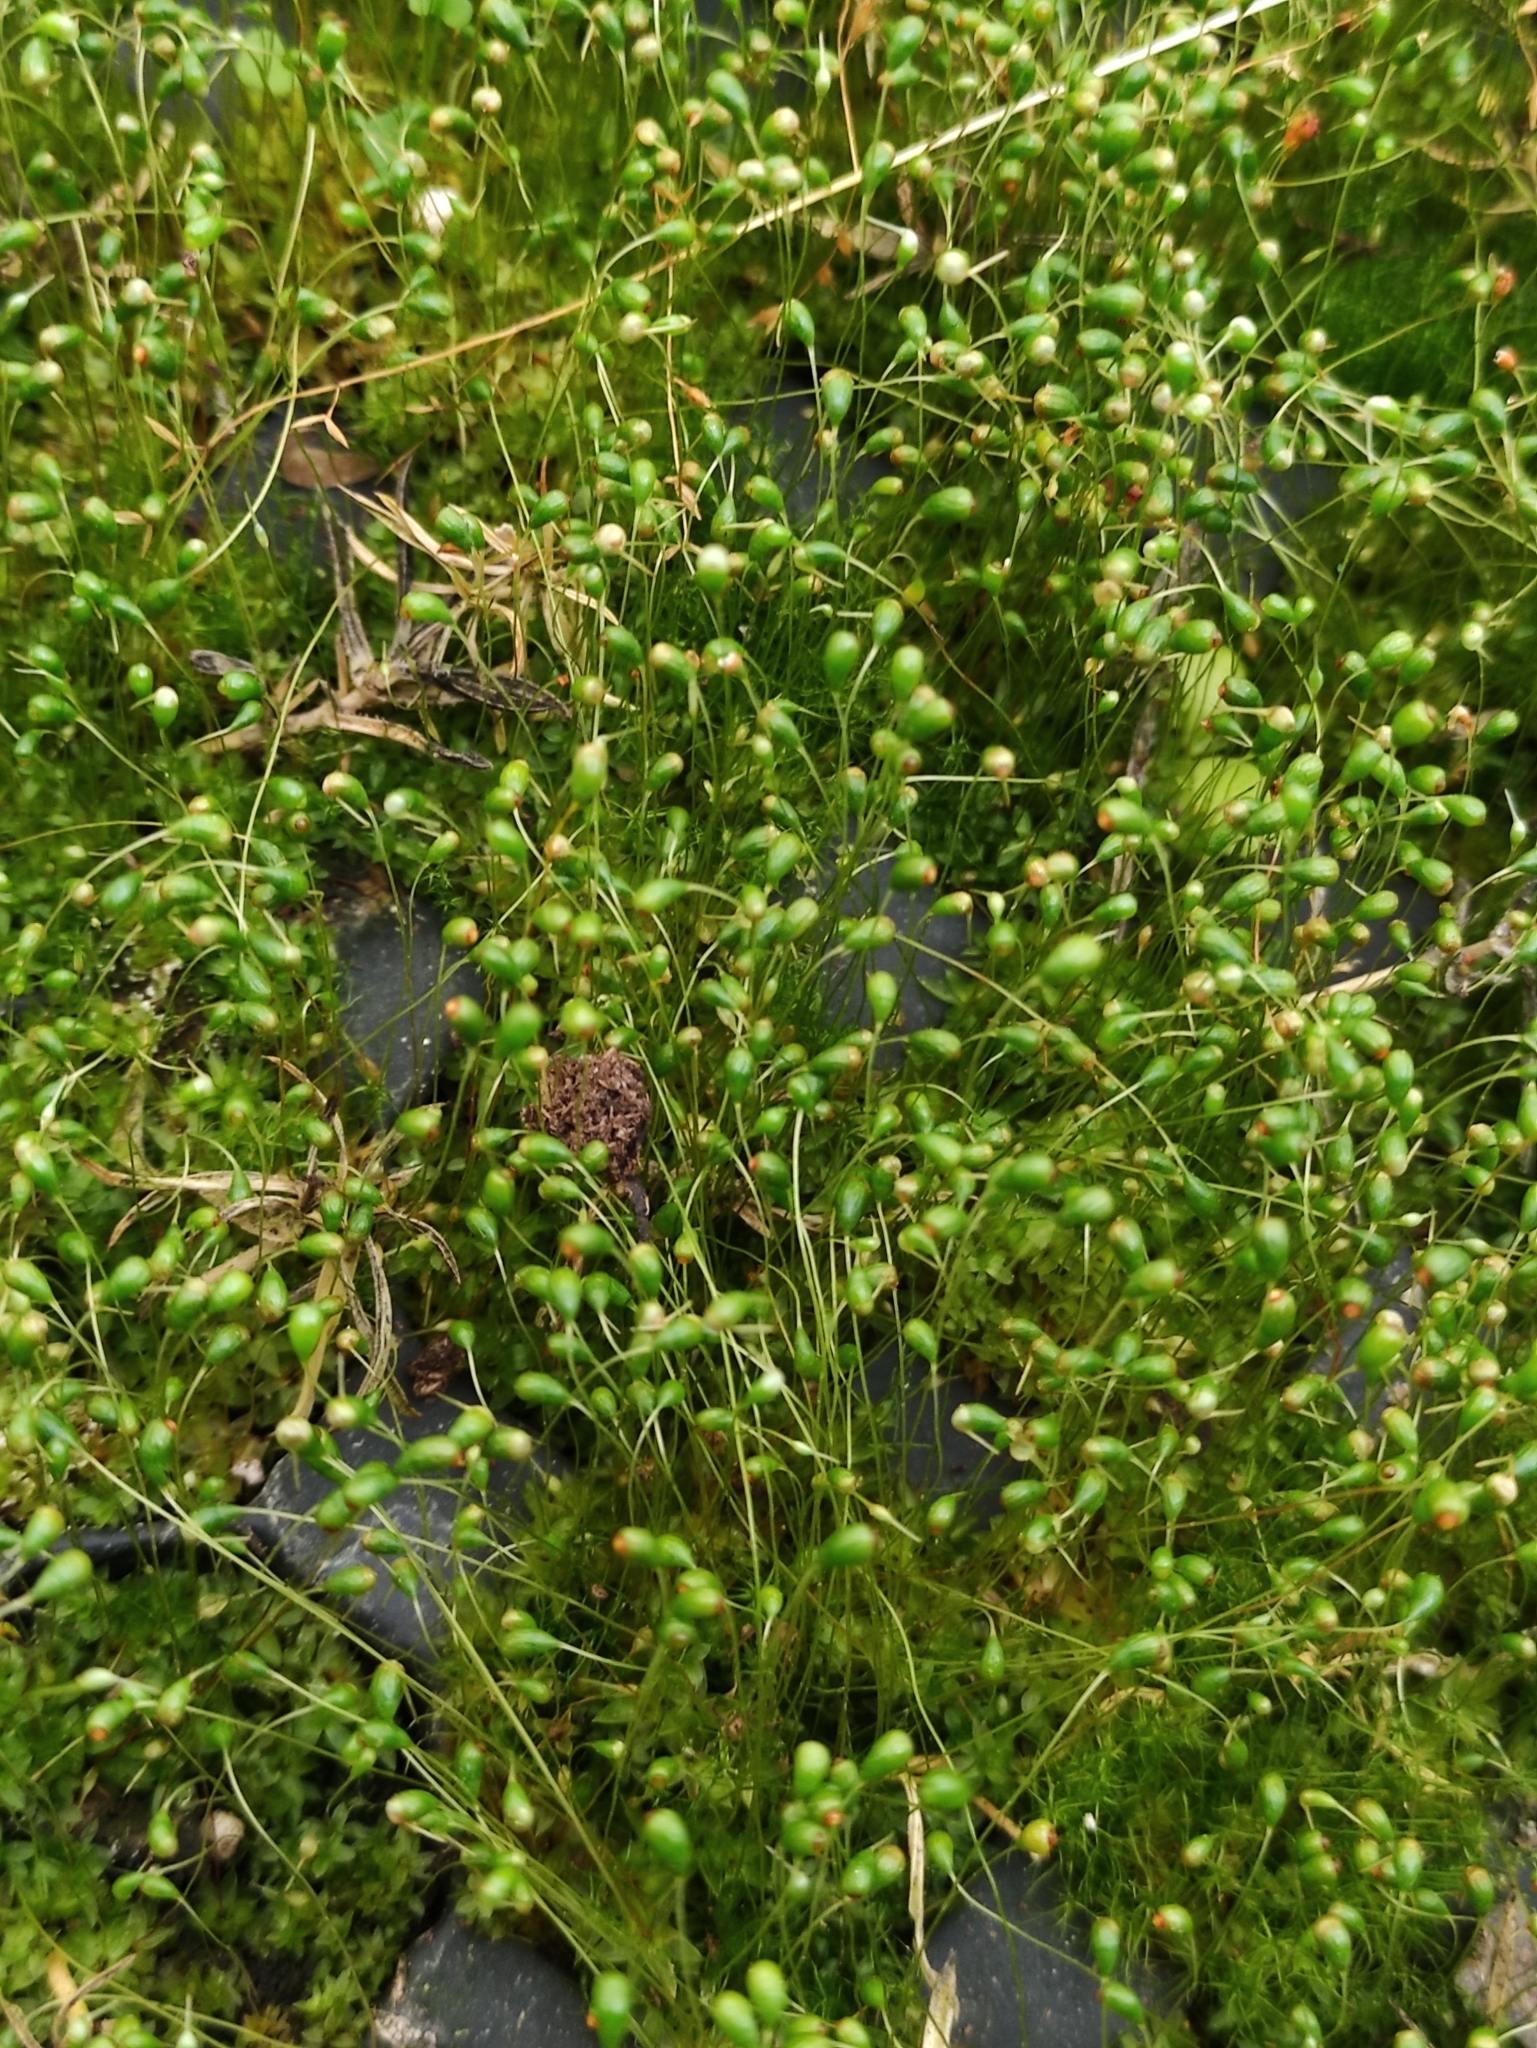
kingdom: Plantae
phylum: Bryophyta
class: Bryopsida
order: Funariales
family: Funariaceae
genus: Funaria
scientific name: Funaria hygrometrica
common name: Common cord moss
